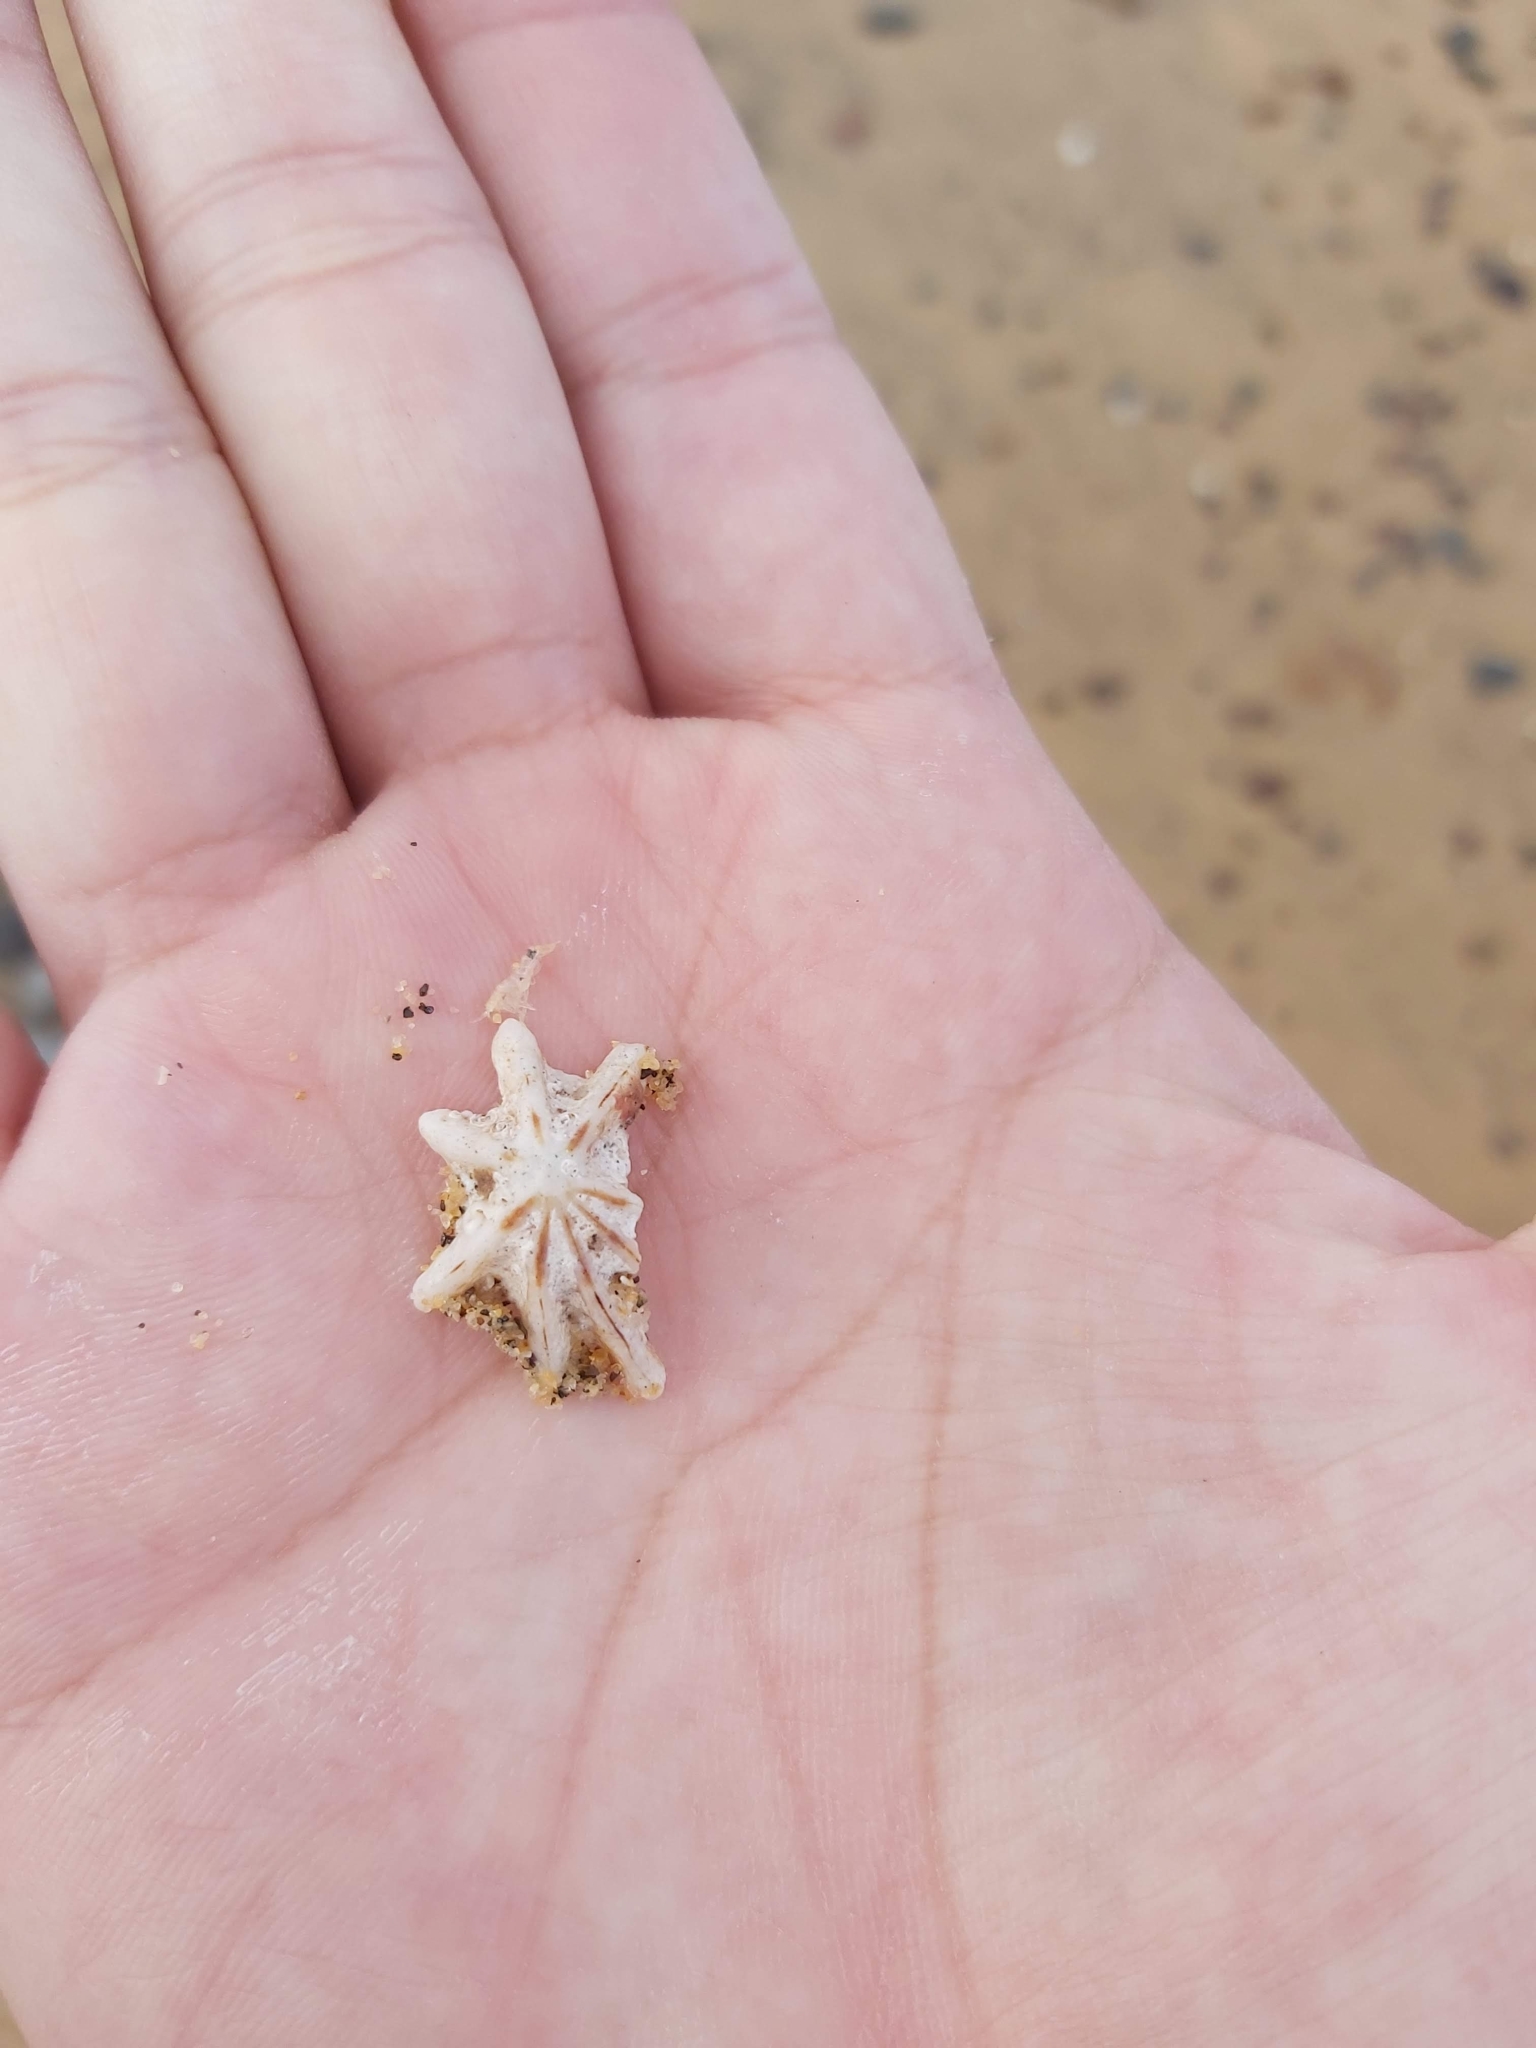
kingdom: Animalia
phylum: Mollusca
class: Gastropoda
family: Patellidae
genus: Scutellastra
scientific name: Scutellastra chapmani
